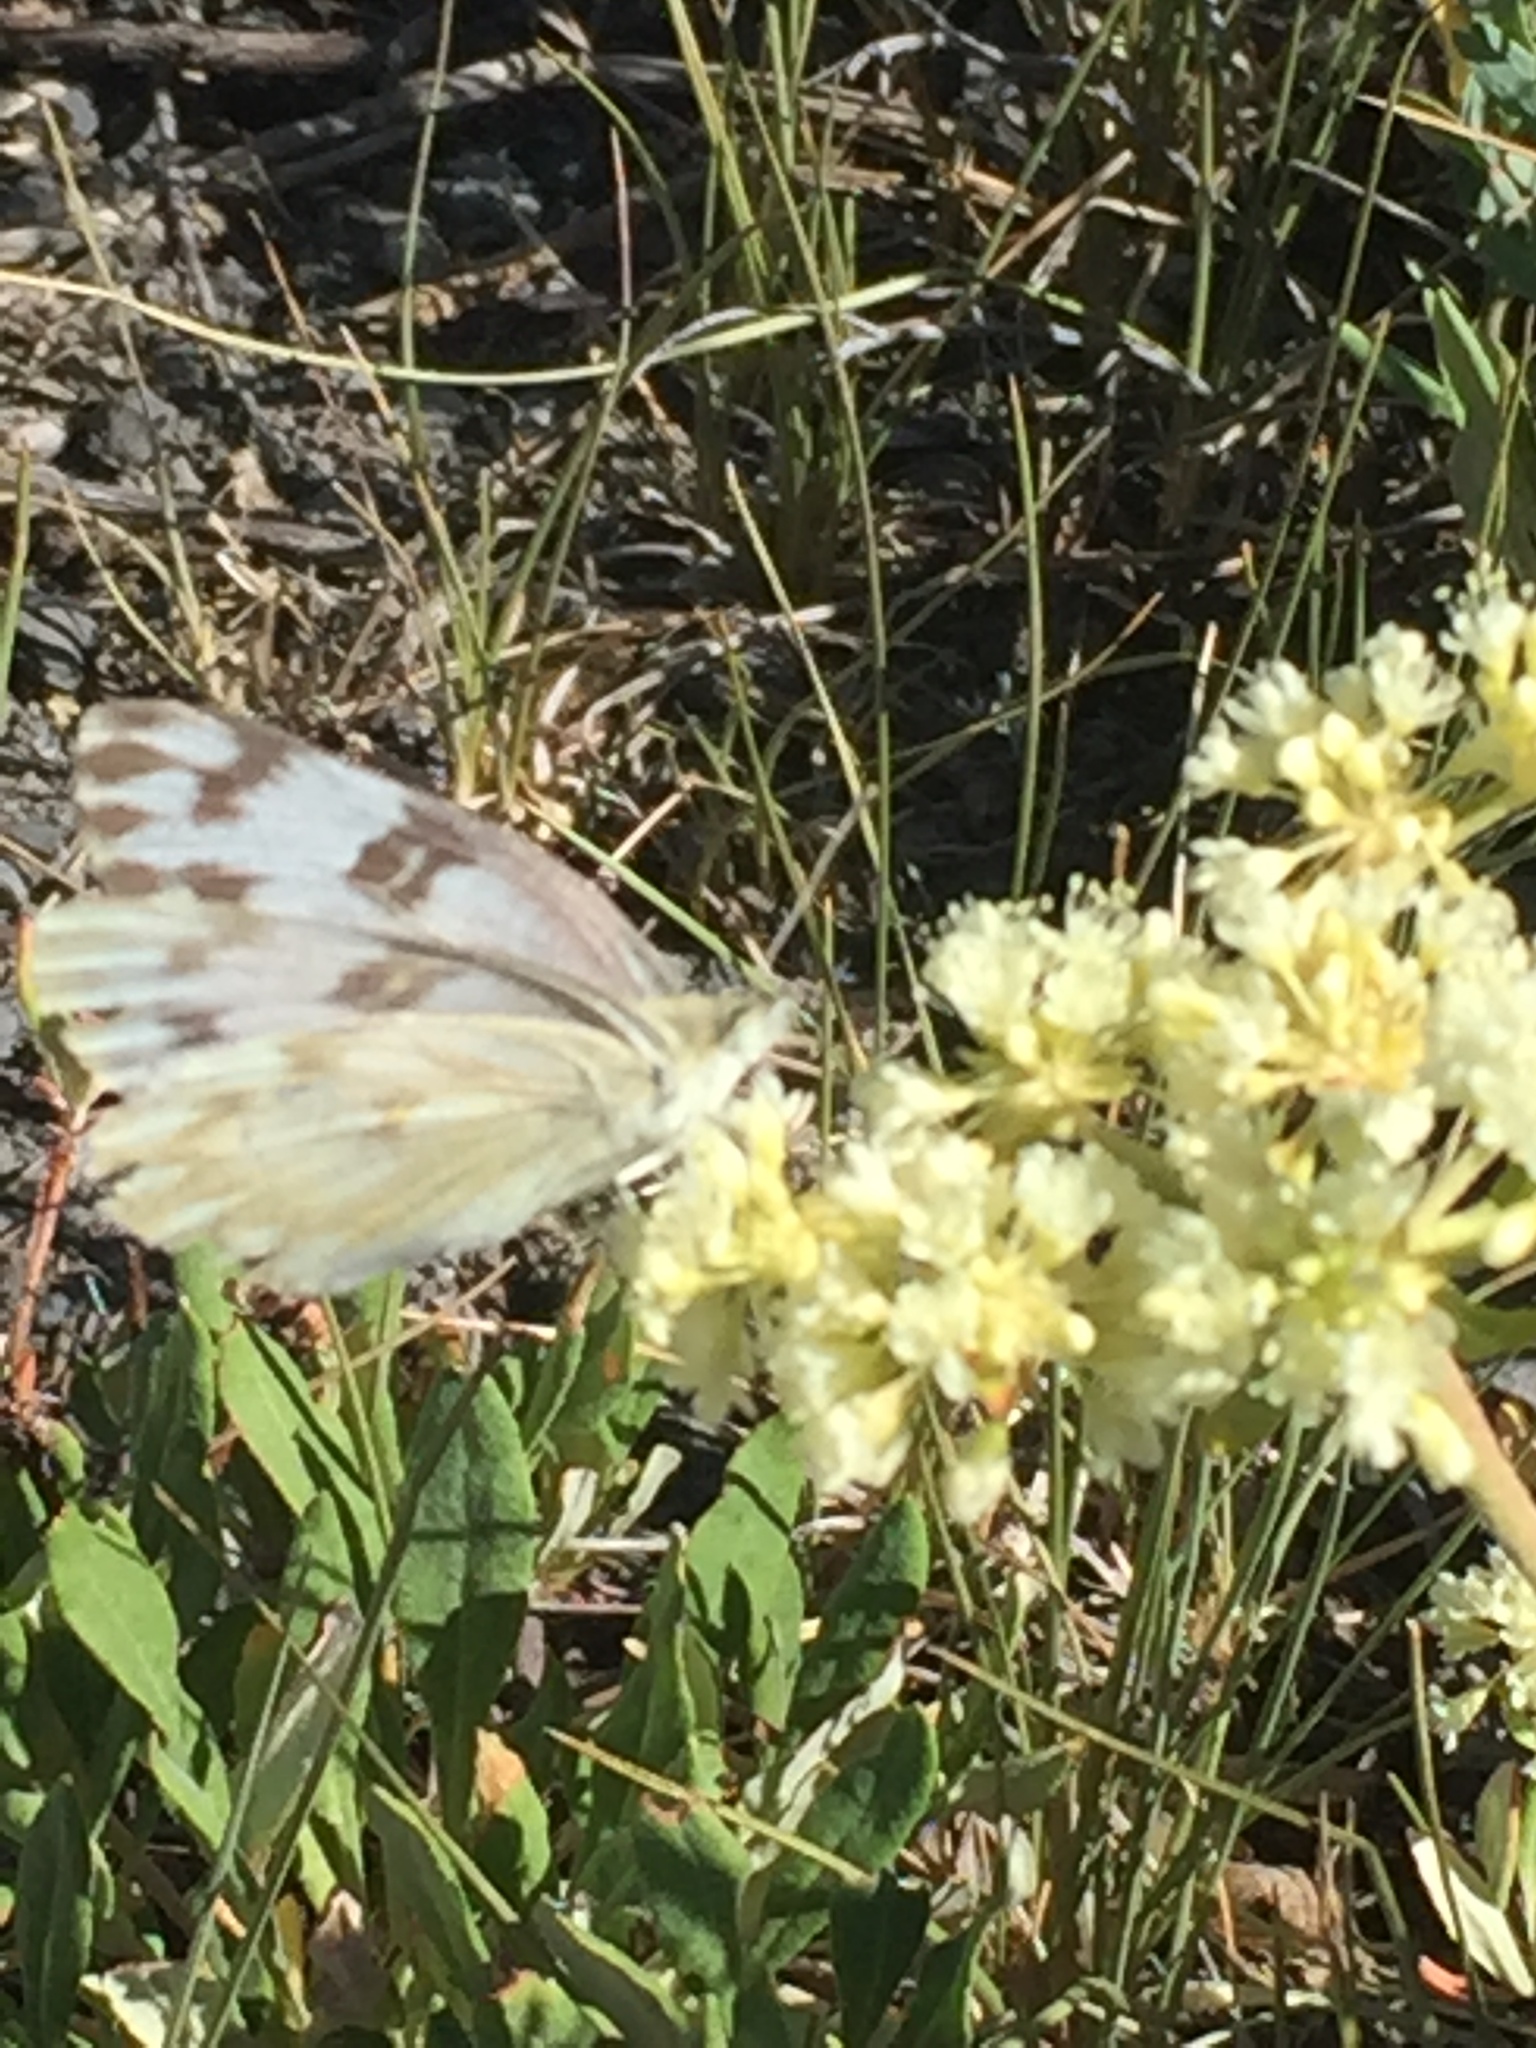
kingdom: Animalia
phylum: Arthropoda
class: Insecta
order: Lepidoptera
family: Pieridae
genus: Pontia
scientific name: Pontia protodice
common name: Checkered white
